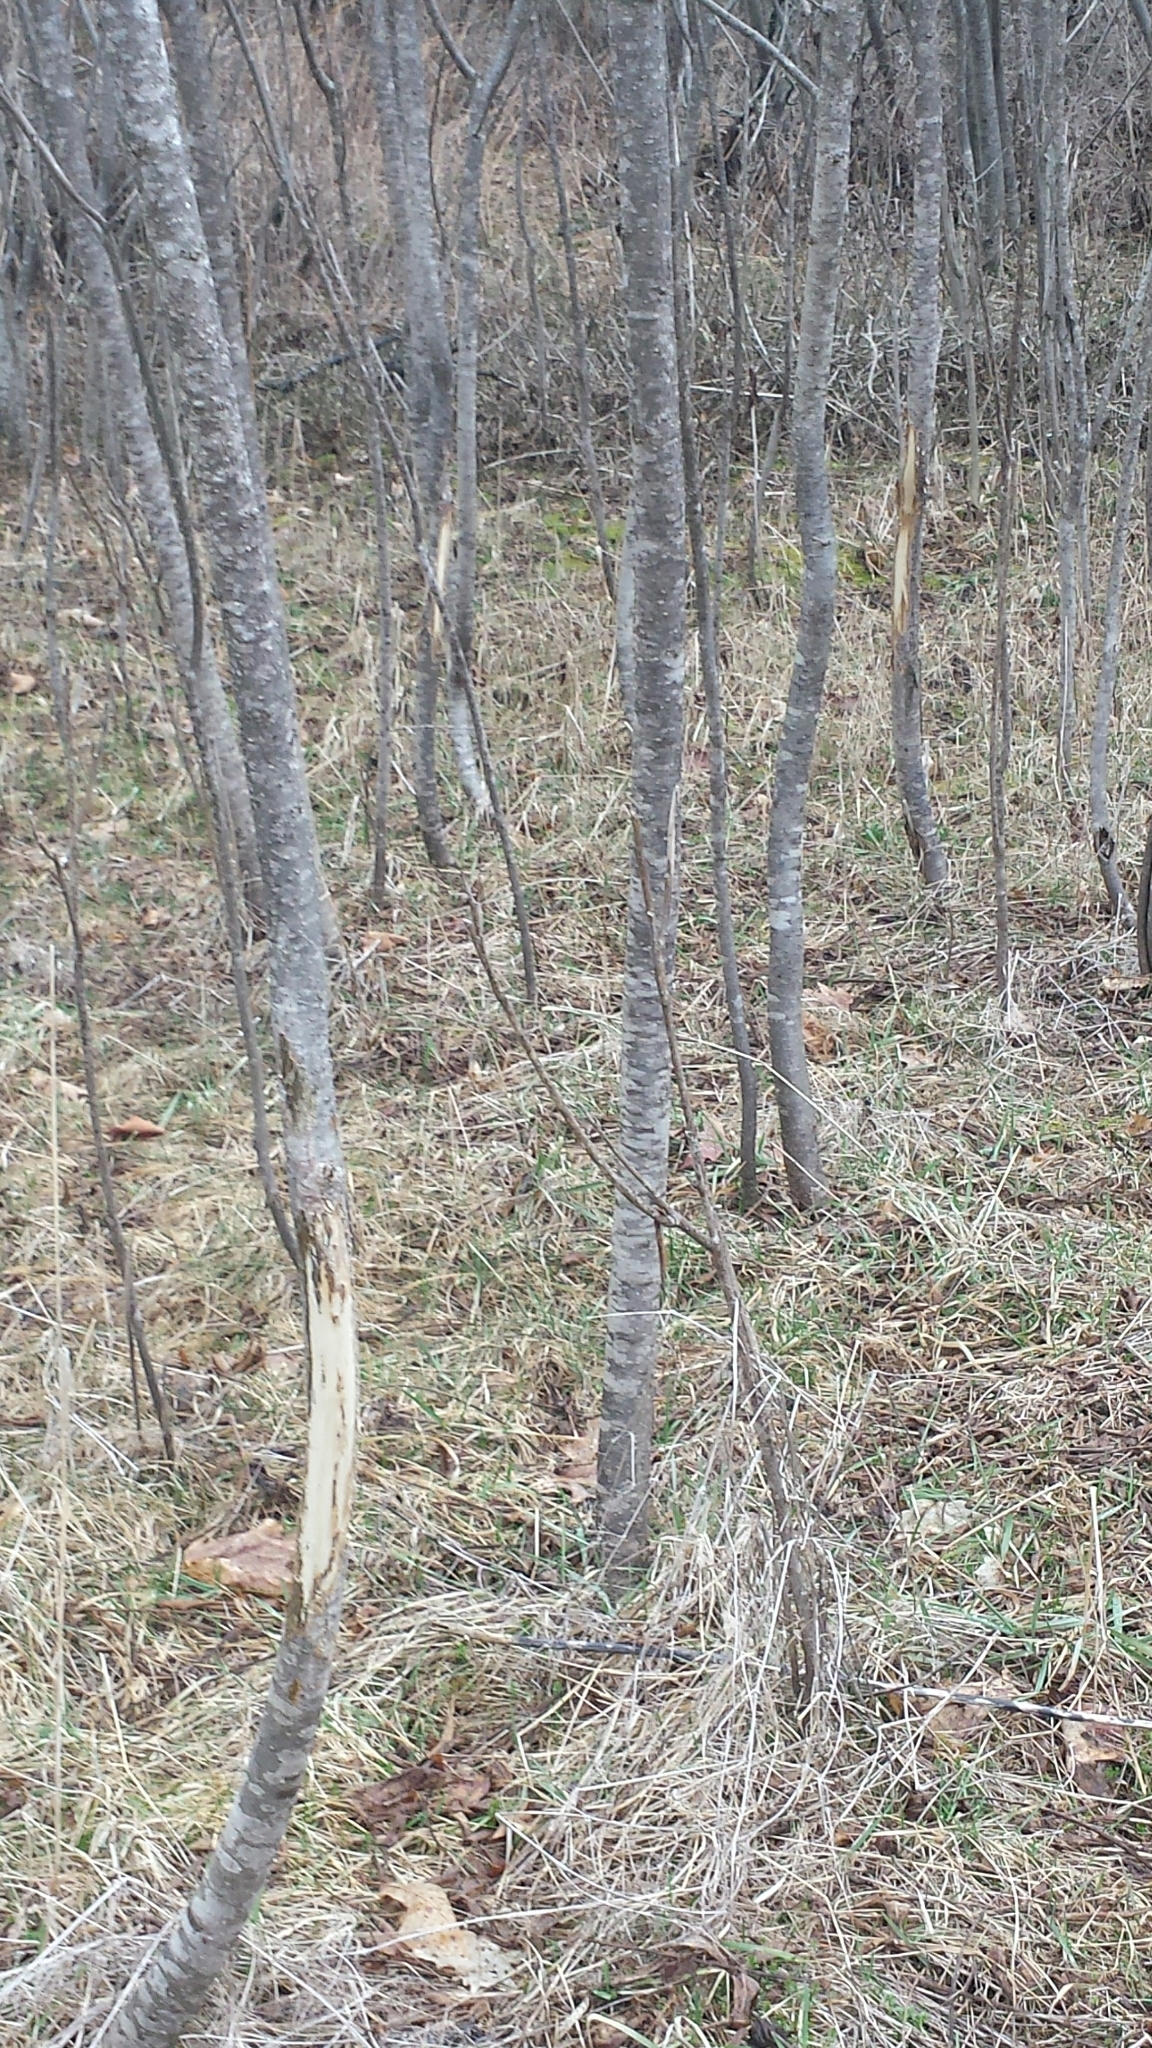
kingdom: Animalia
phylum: Chordata
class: Mammalia
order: Artiodactyla
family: Cervidae
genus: Odocoileus
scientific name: Odocoileus virginianus
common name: White-tailed deer
